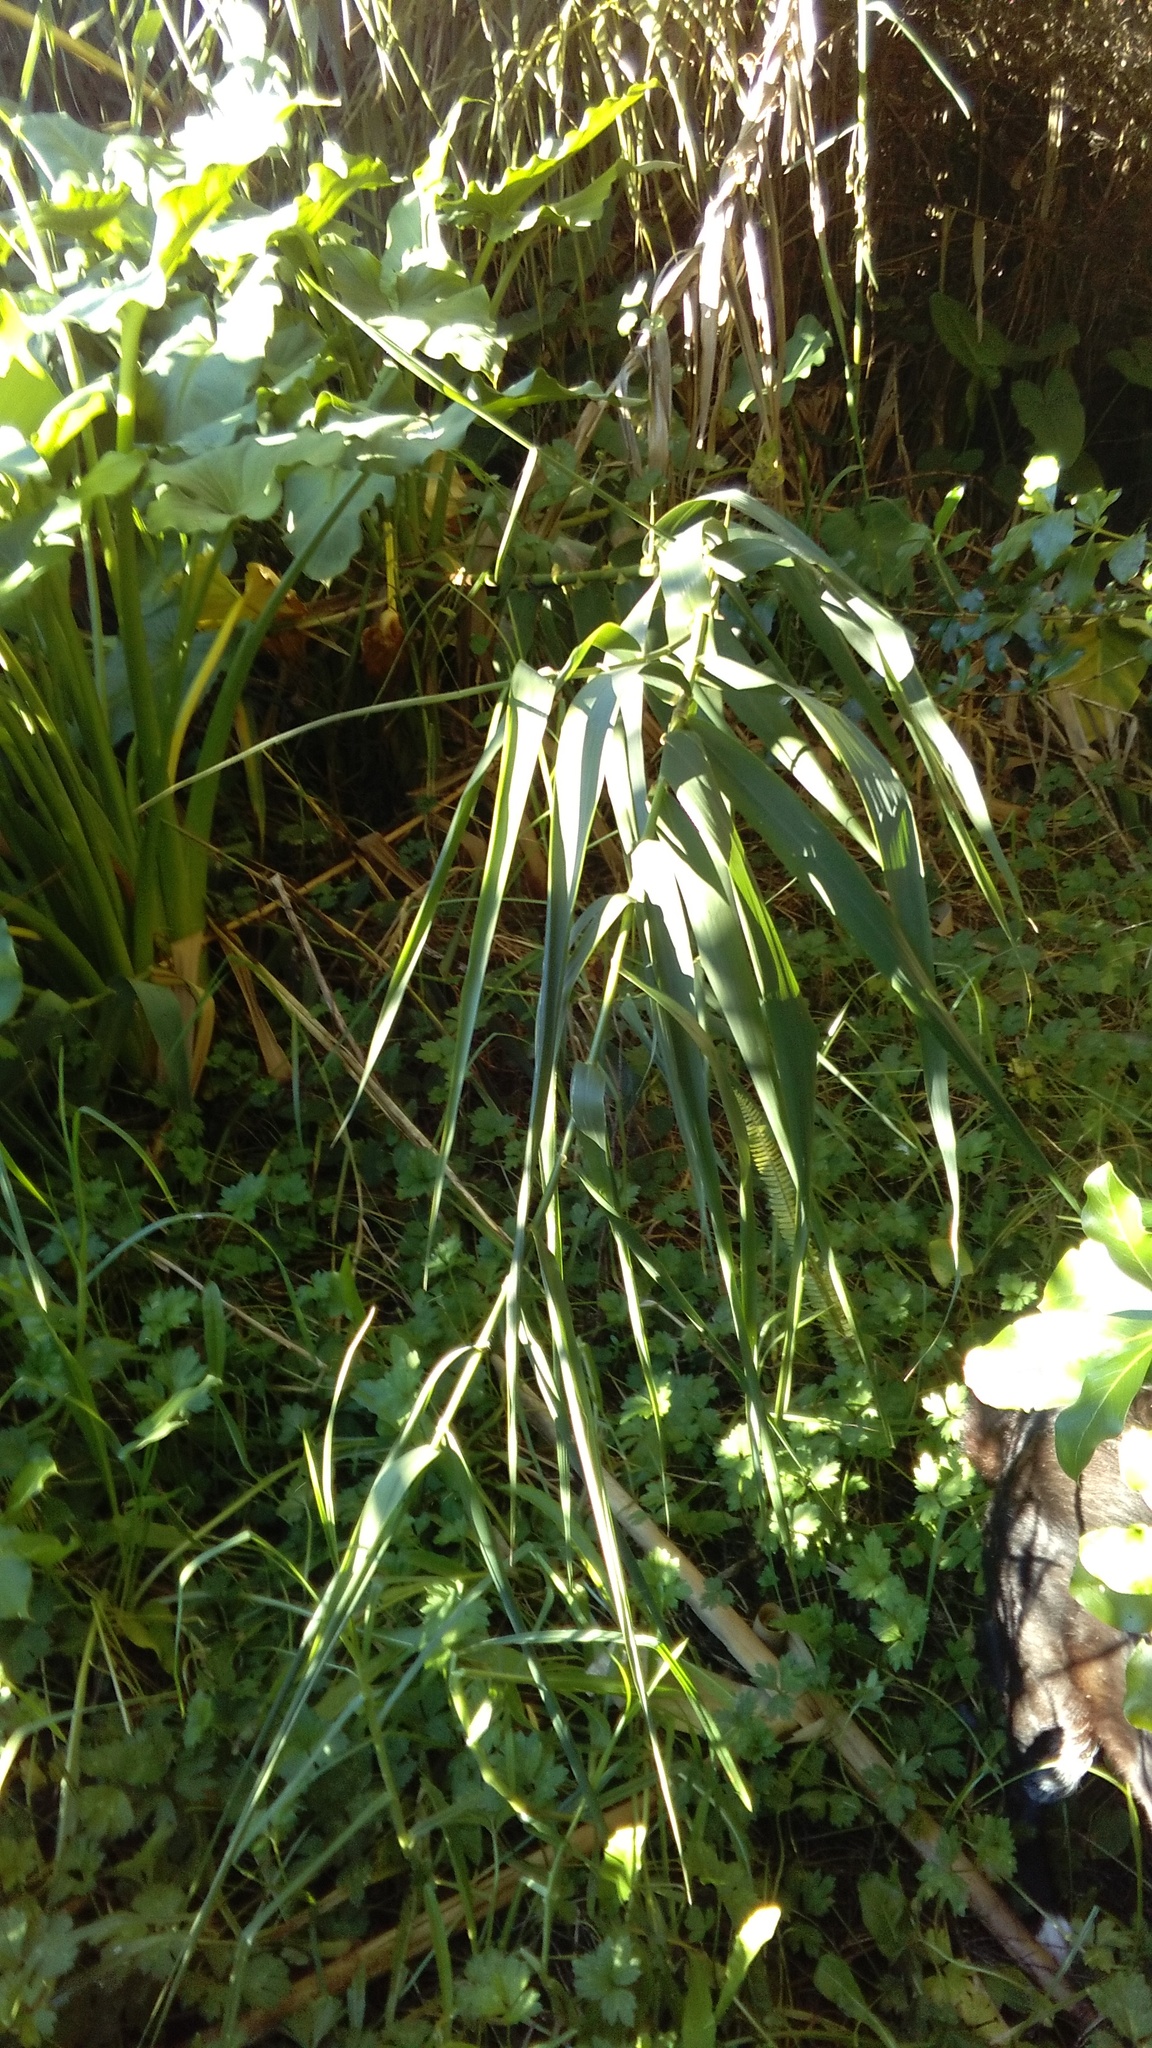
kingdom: Plantae
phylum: Tracheophyta
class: Liliopsida
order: Poales
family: Poaceae
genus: Arundo
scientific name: Arundo donax
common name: Giant reed
